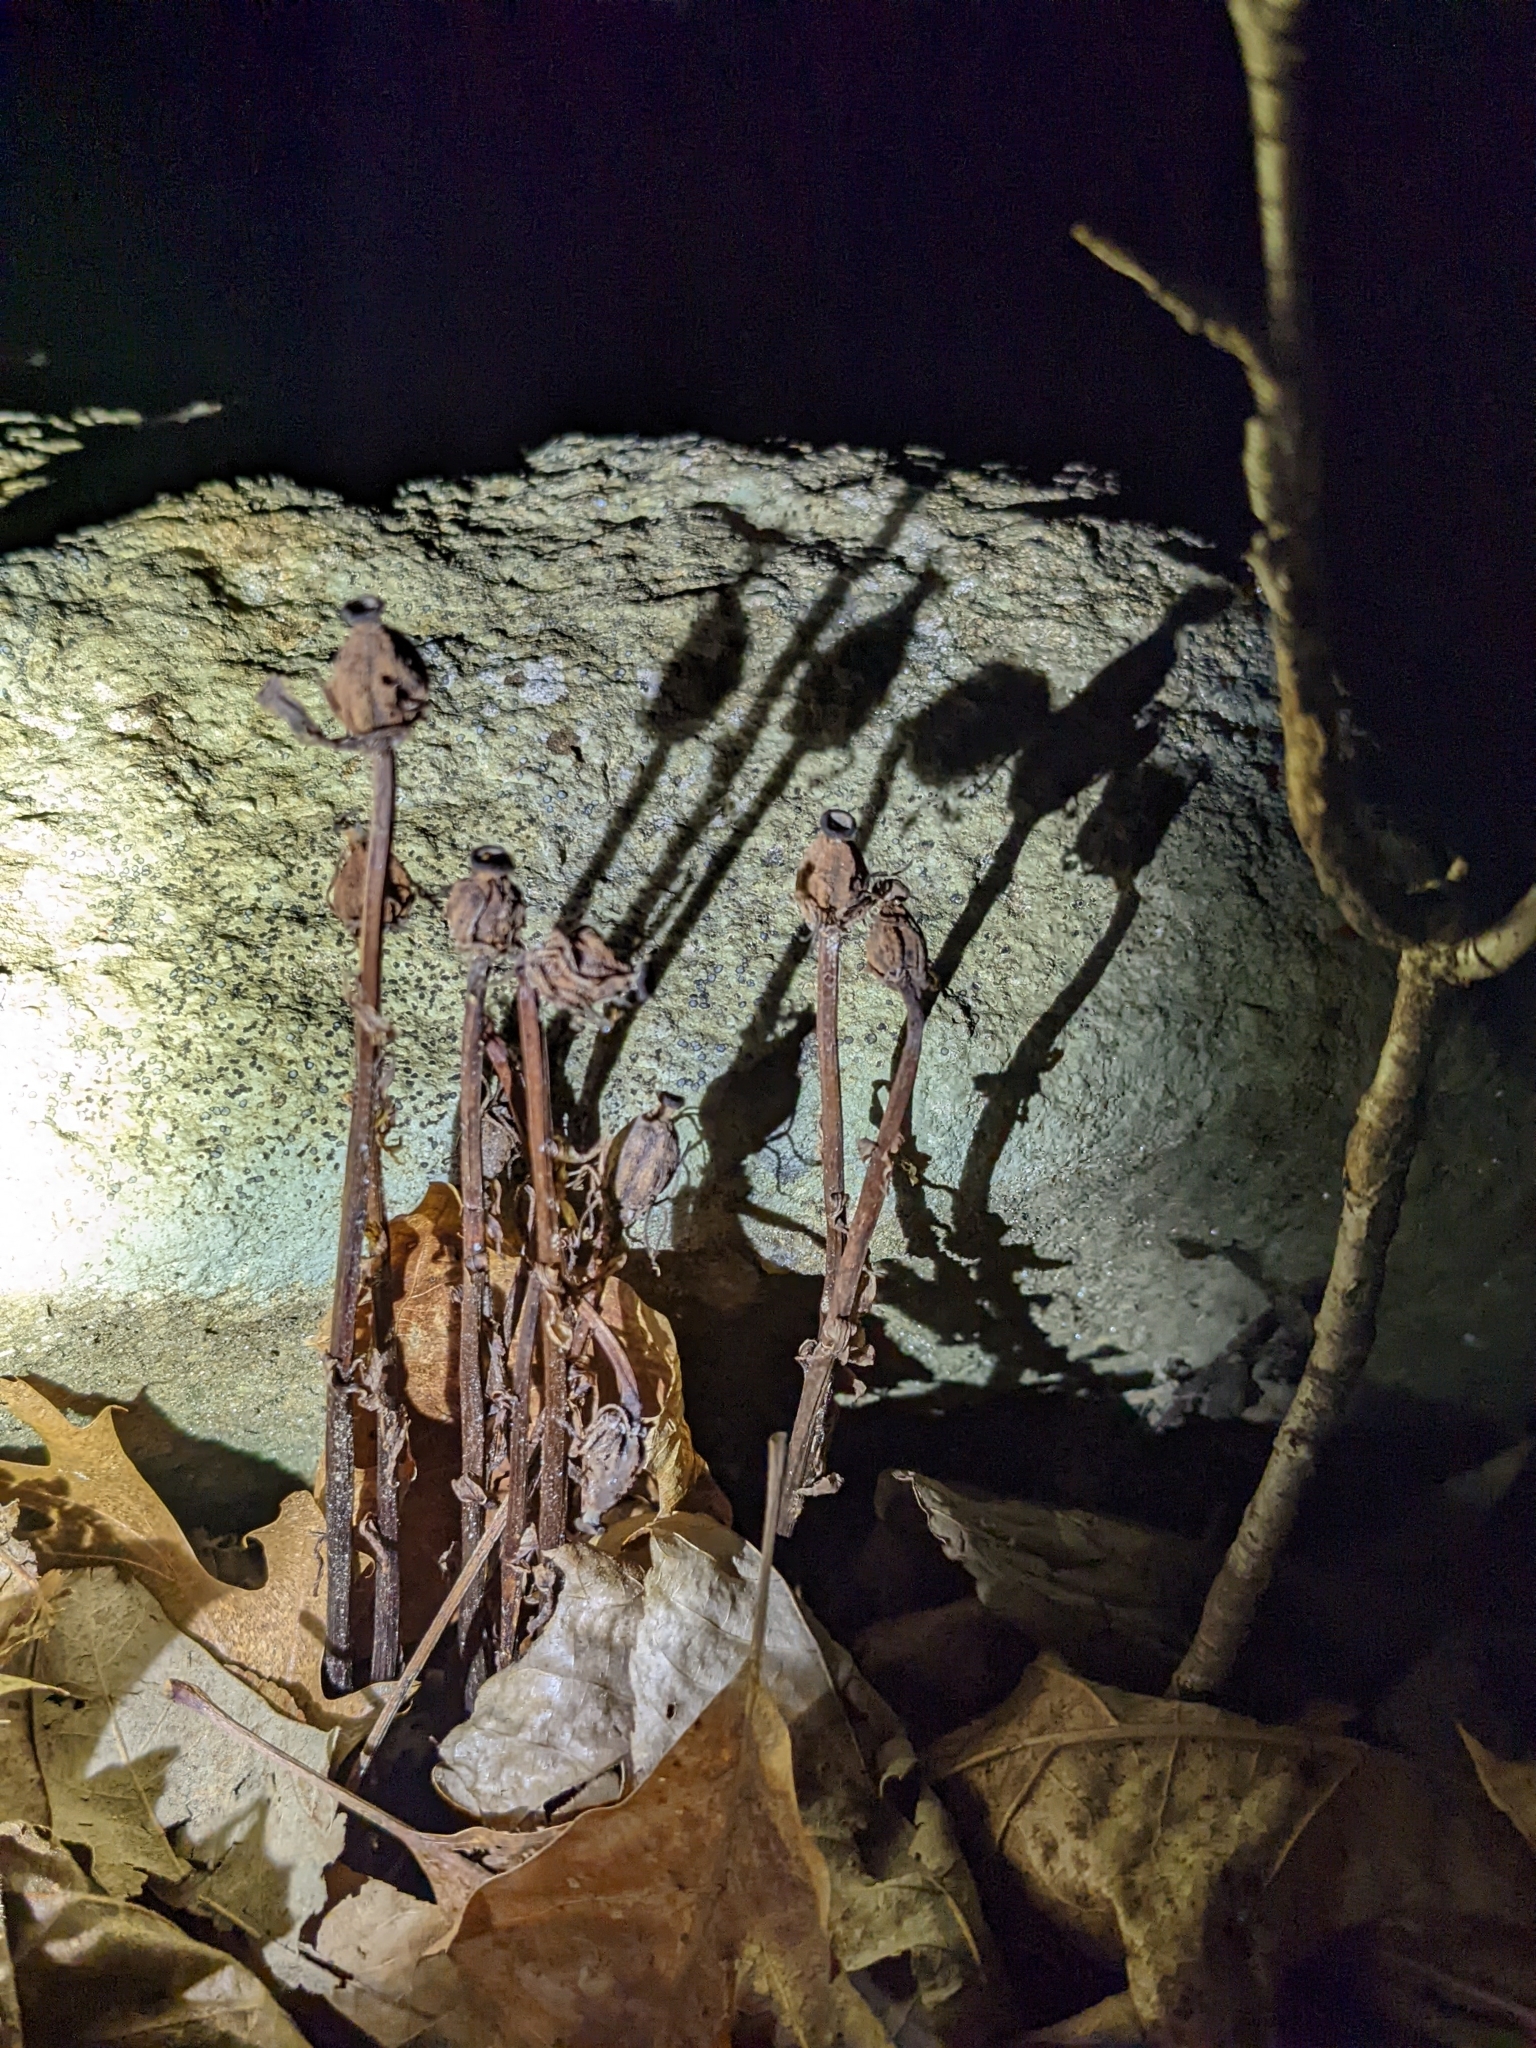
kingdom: Plantae
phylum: Tracheophyta
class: Magnoliopsida
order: Ericales
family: Ericaceae
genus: Monotropa
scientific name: Monotropa uniflora
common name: Convulsion root
